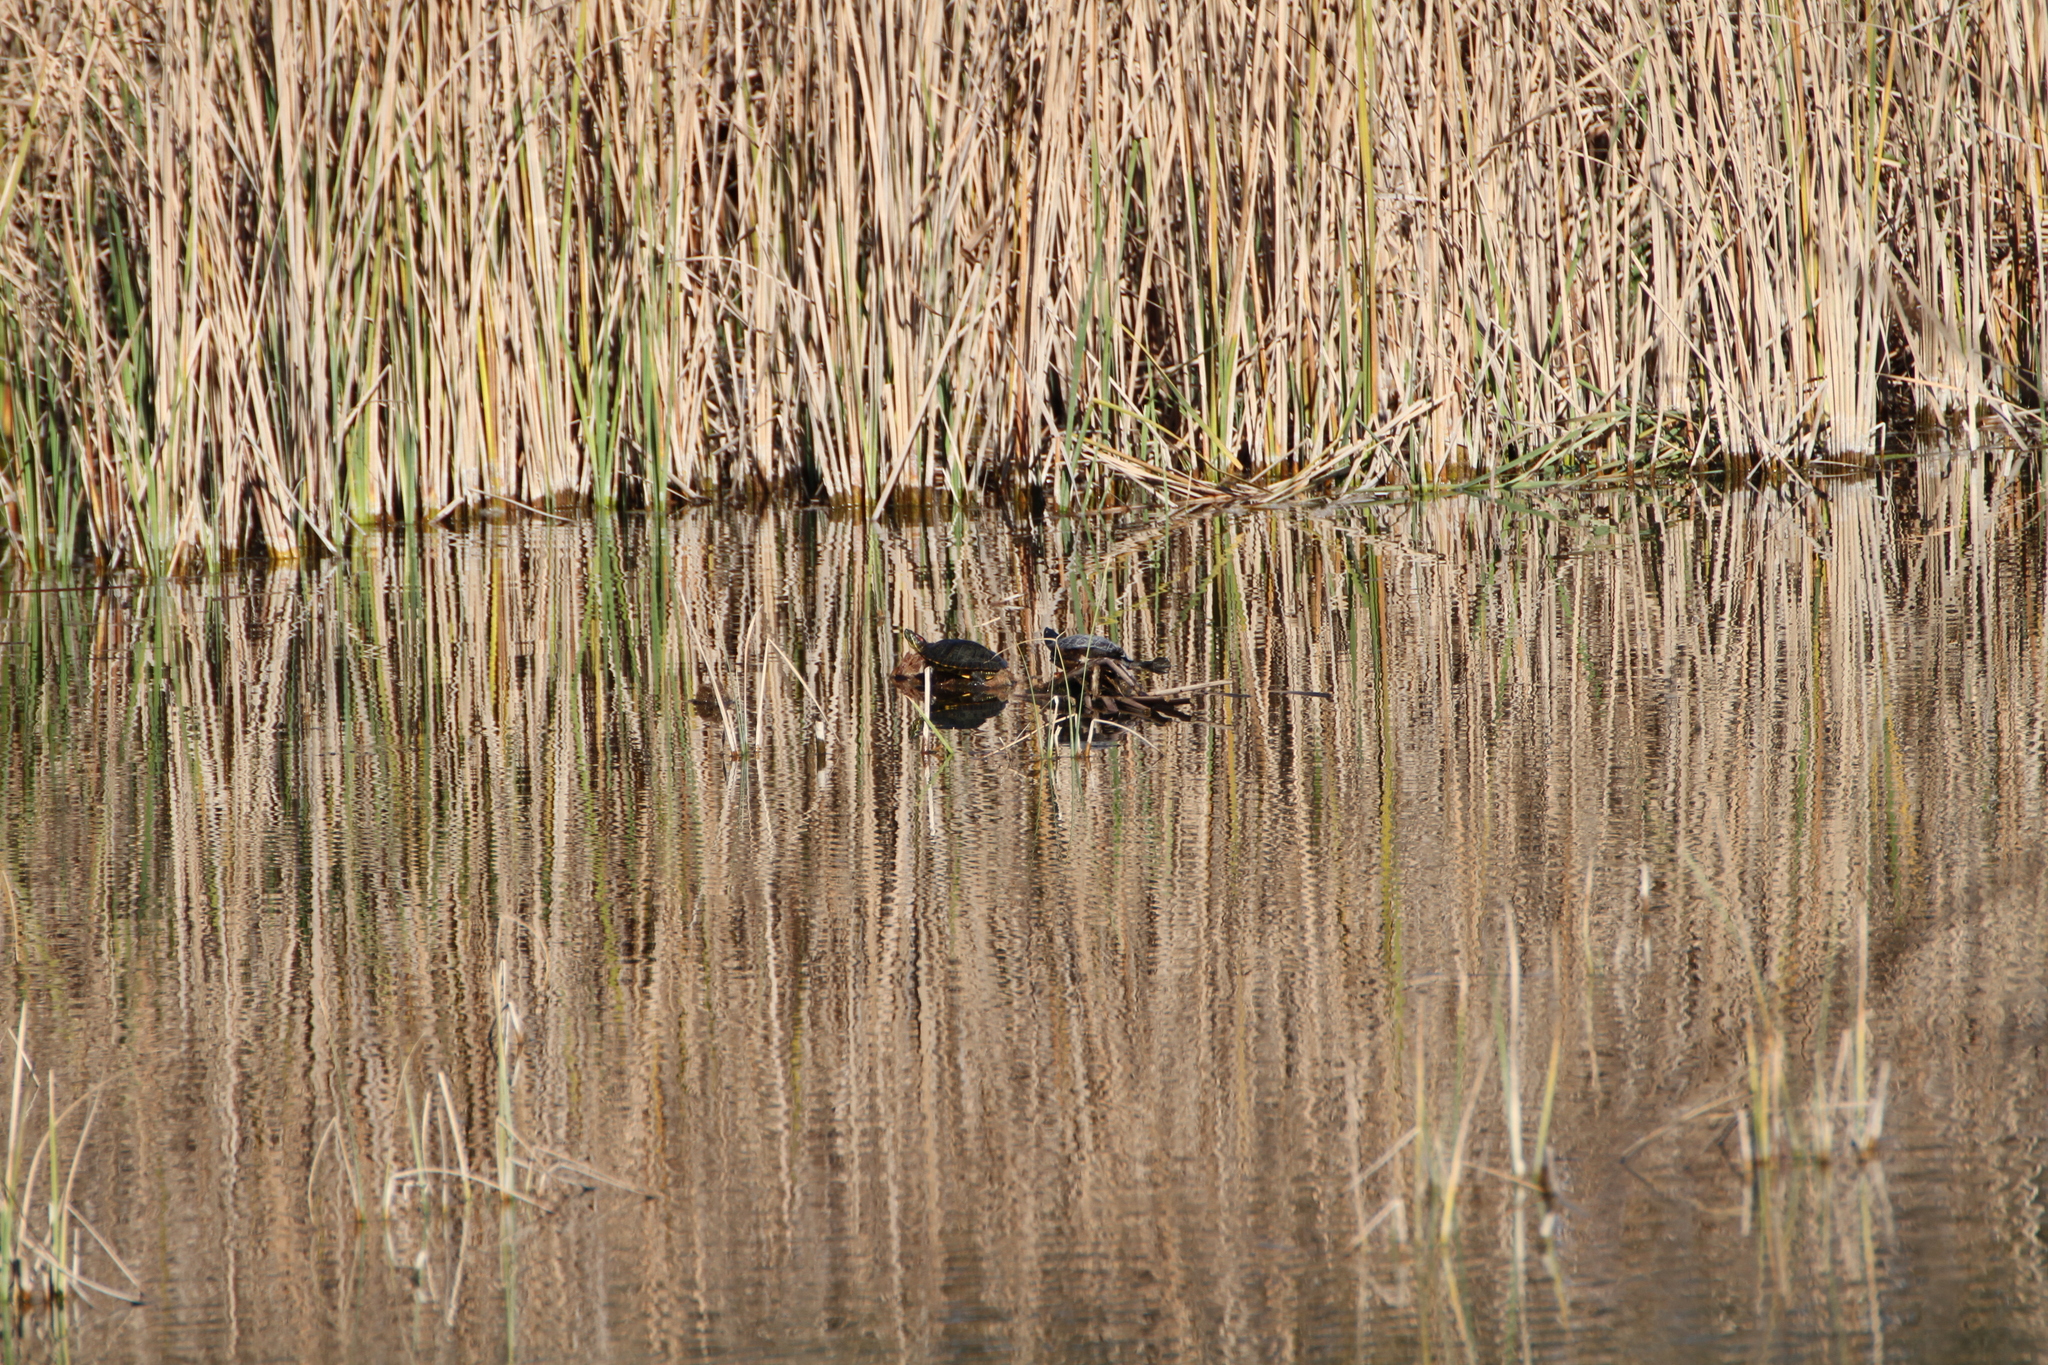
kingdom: Animalia
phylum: Chordata
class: Testudines
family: Emydidae
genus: Trachemys
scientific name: Trachemys scripta
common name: Slider
